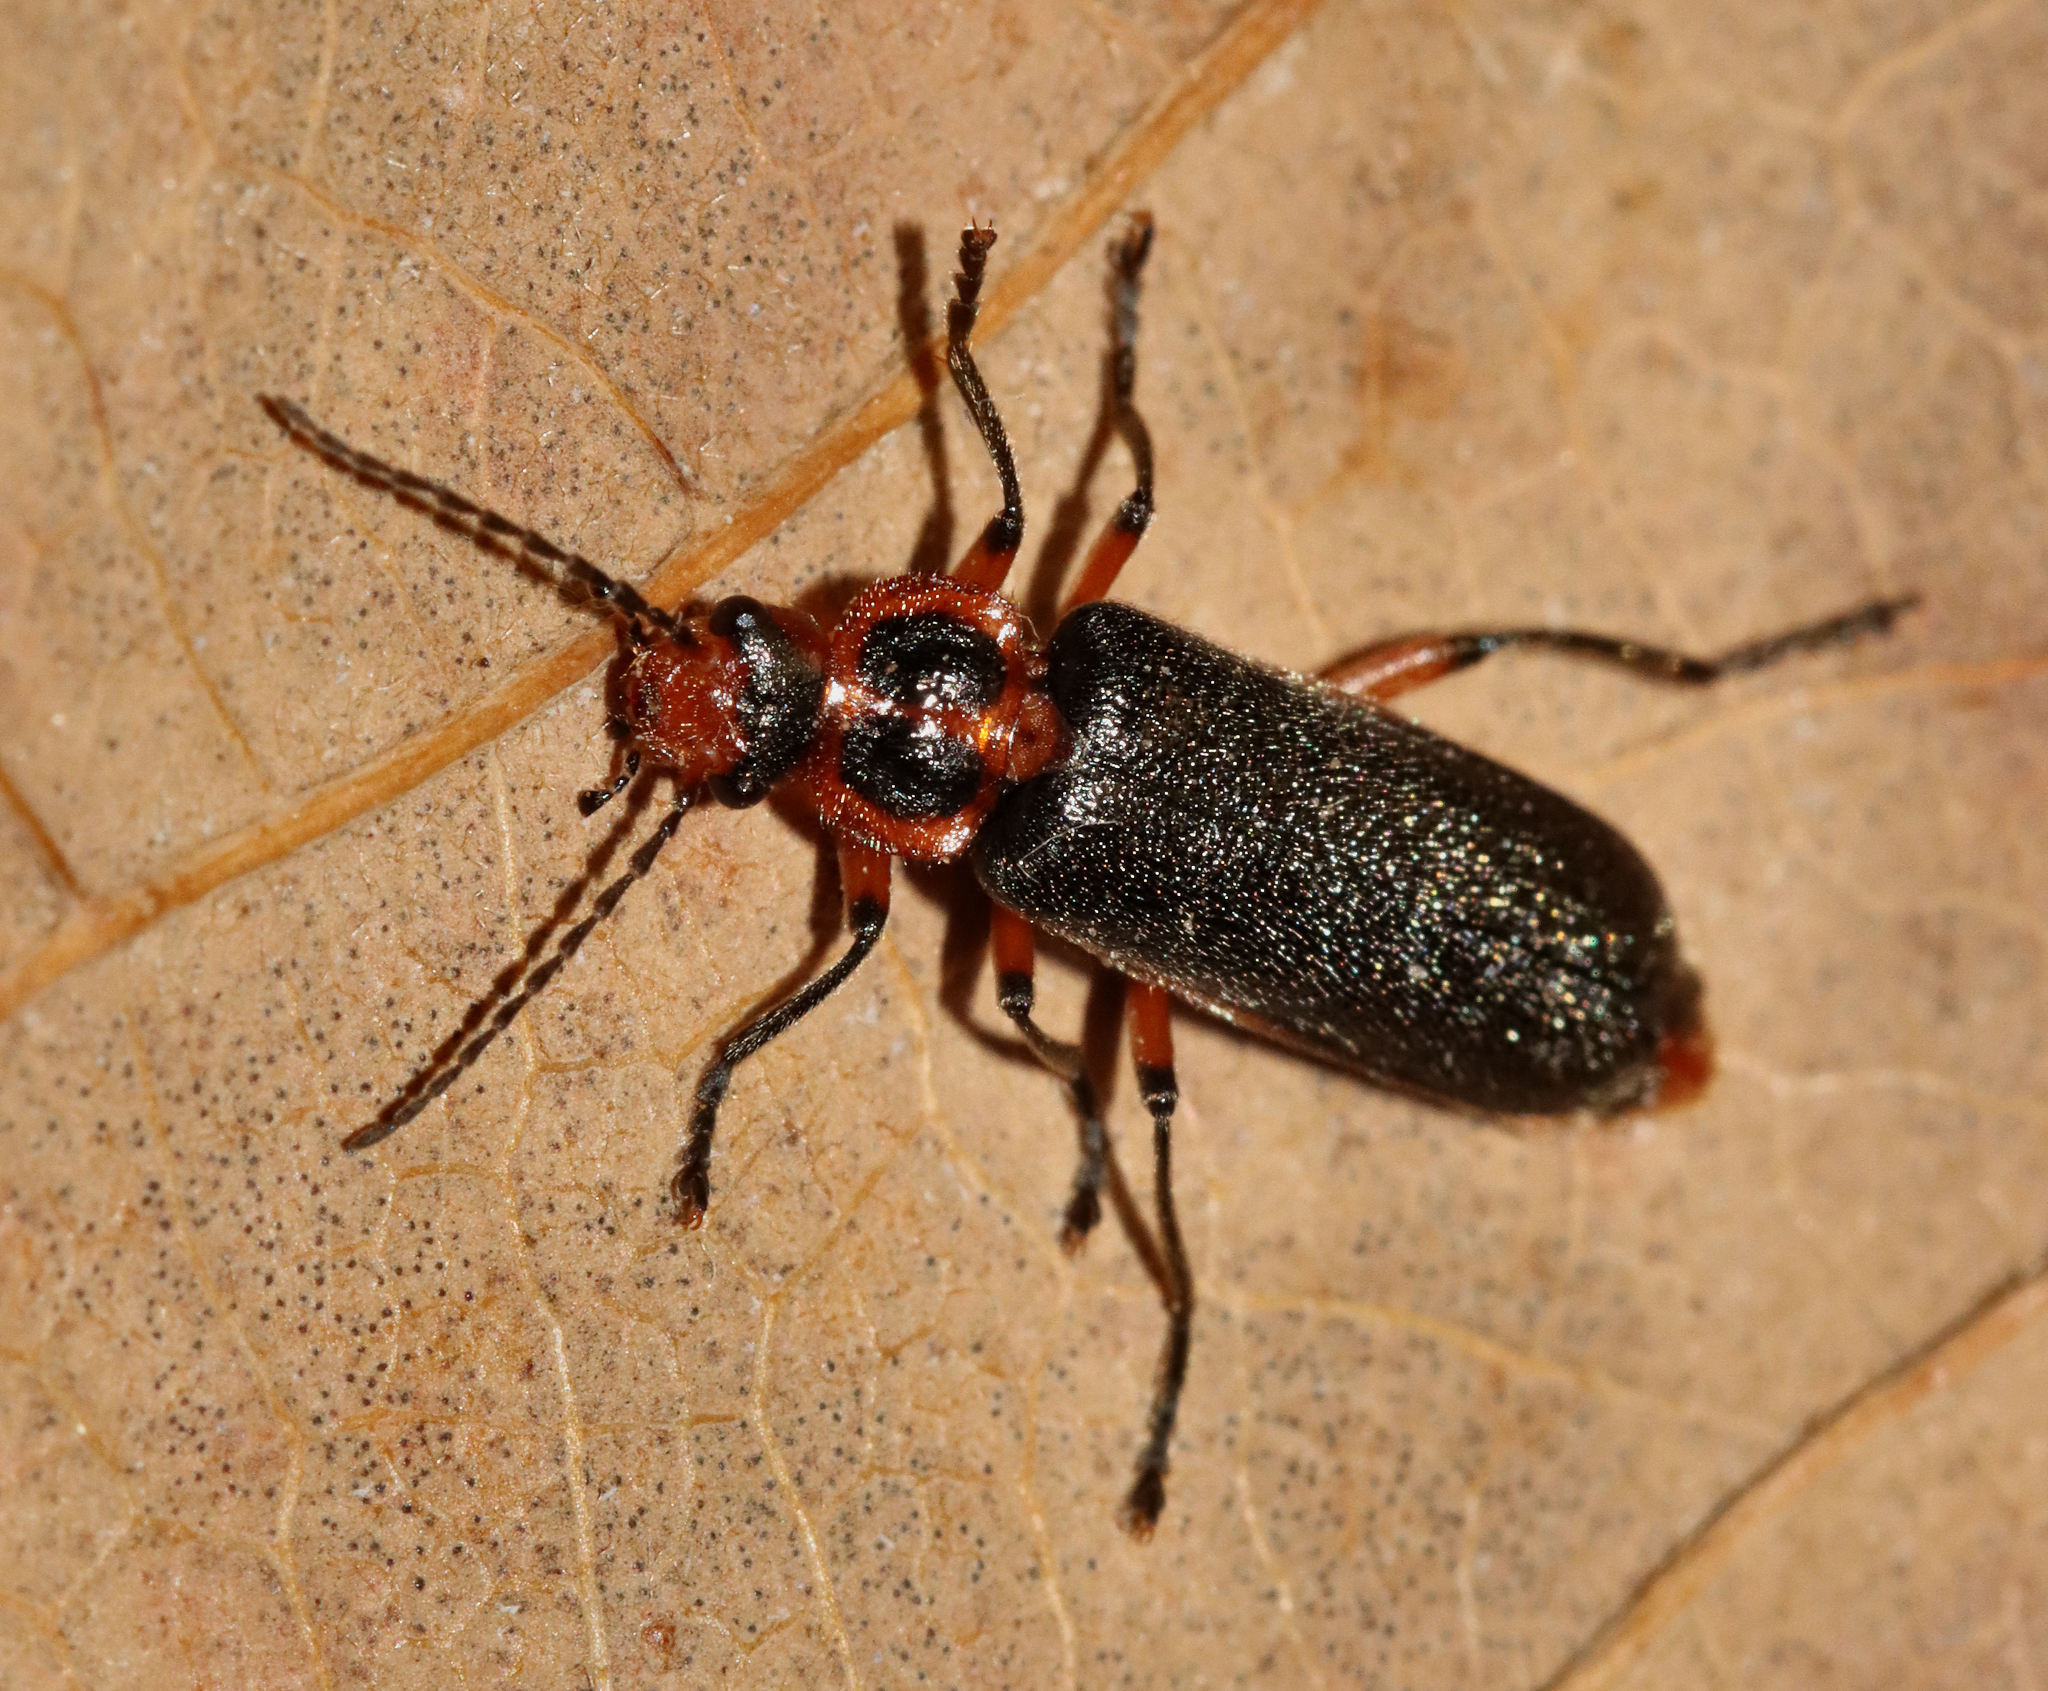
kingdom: Animalia
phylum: Arthropoda
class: Insecta
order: Coleoptera
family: Cantharidae
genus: Atalantycha
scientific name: Atalantycha bilineata
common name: Two-lined leatherwing
